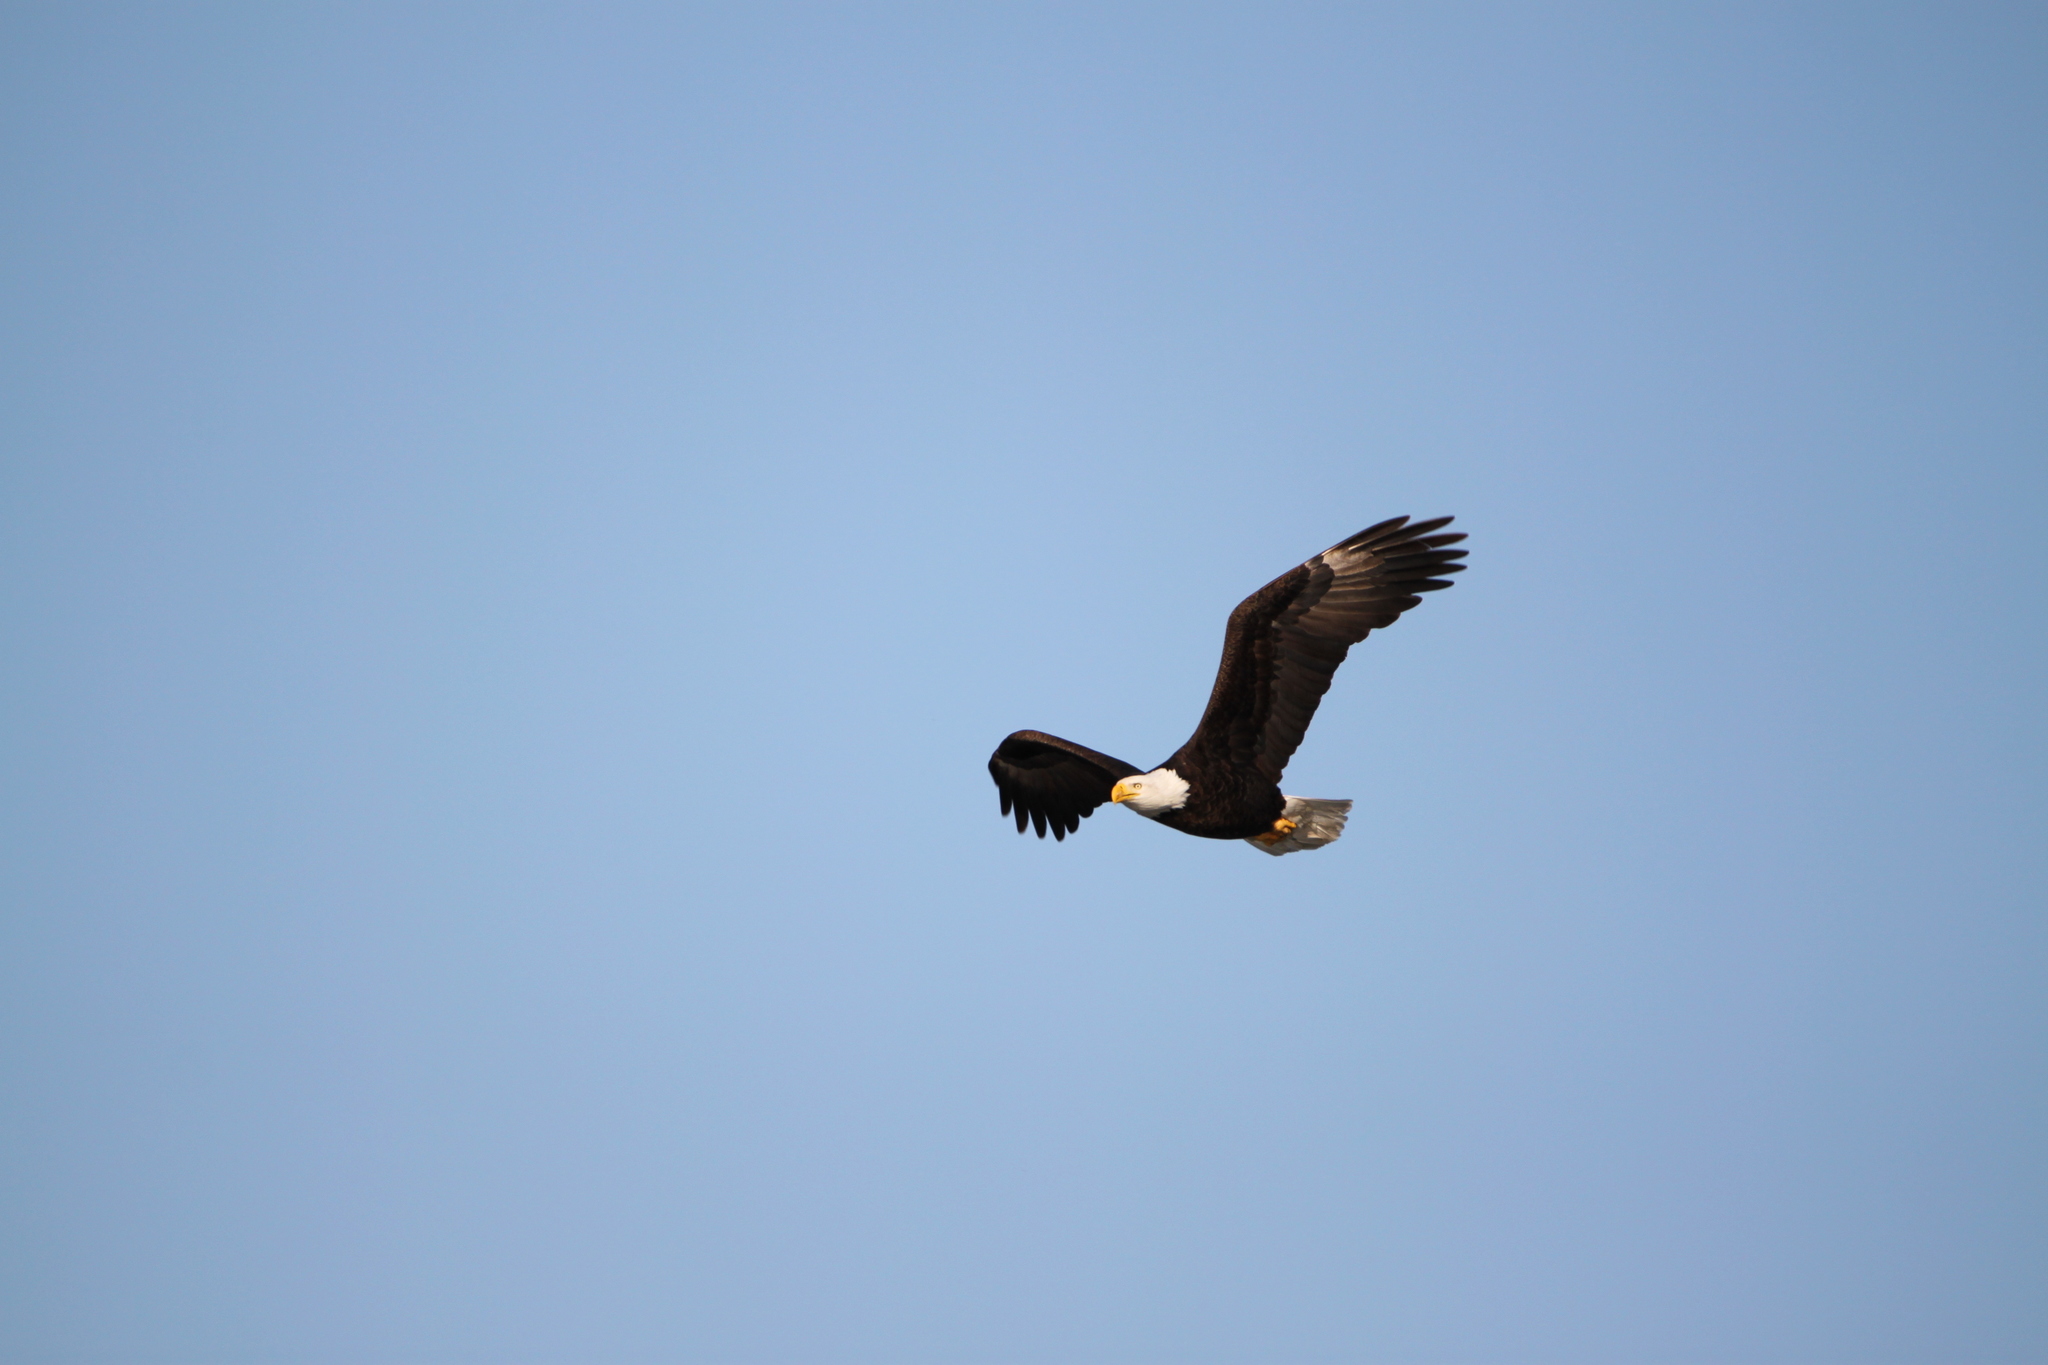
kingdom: Animalia
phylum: Chordata
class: Aves
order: Accipitriformes
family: Accipitridae
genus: Haliaeetus
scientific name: Haliaeetus leucocephalus
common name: Bald eagle
